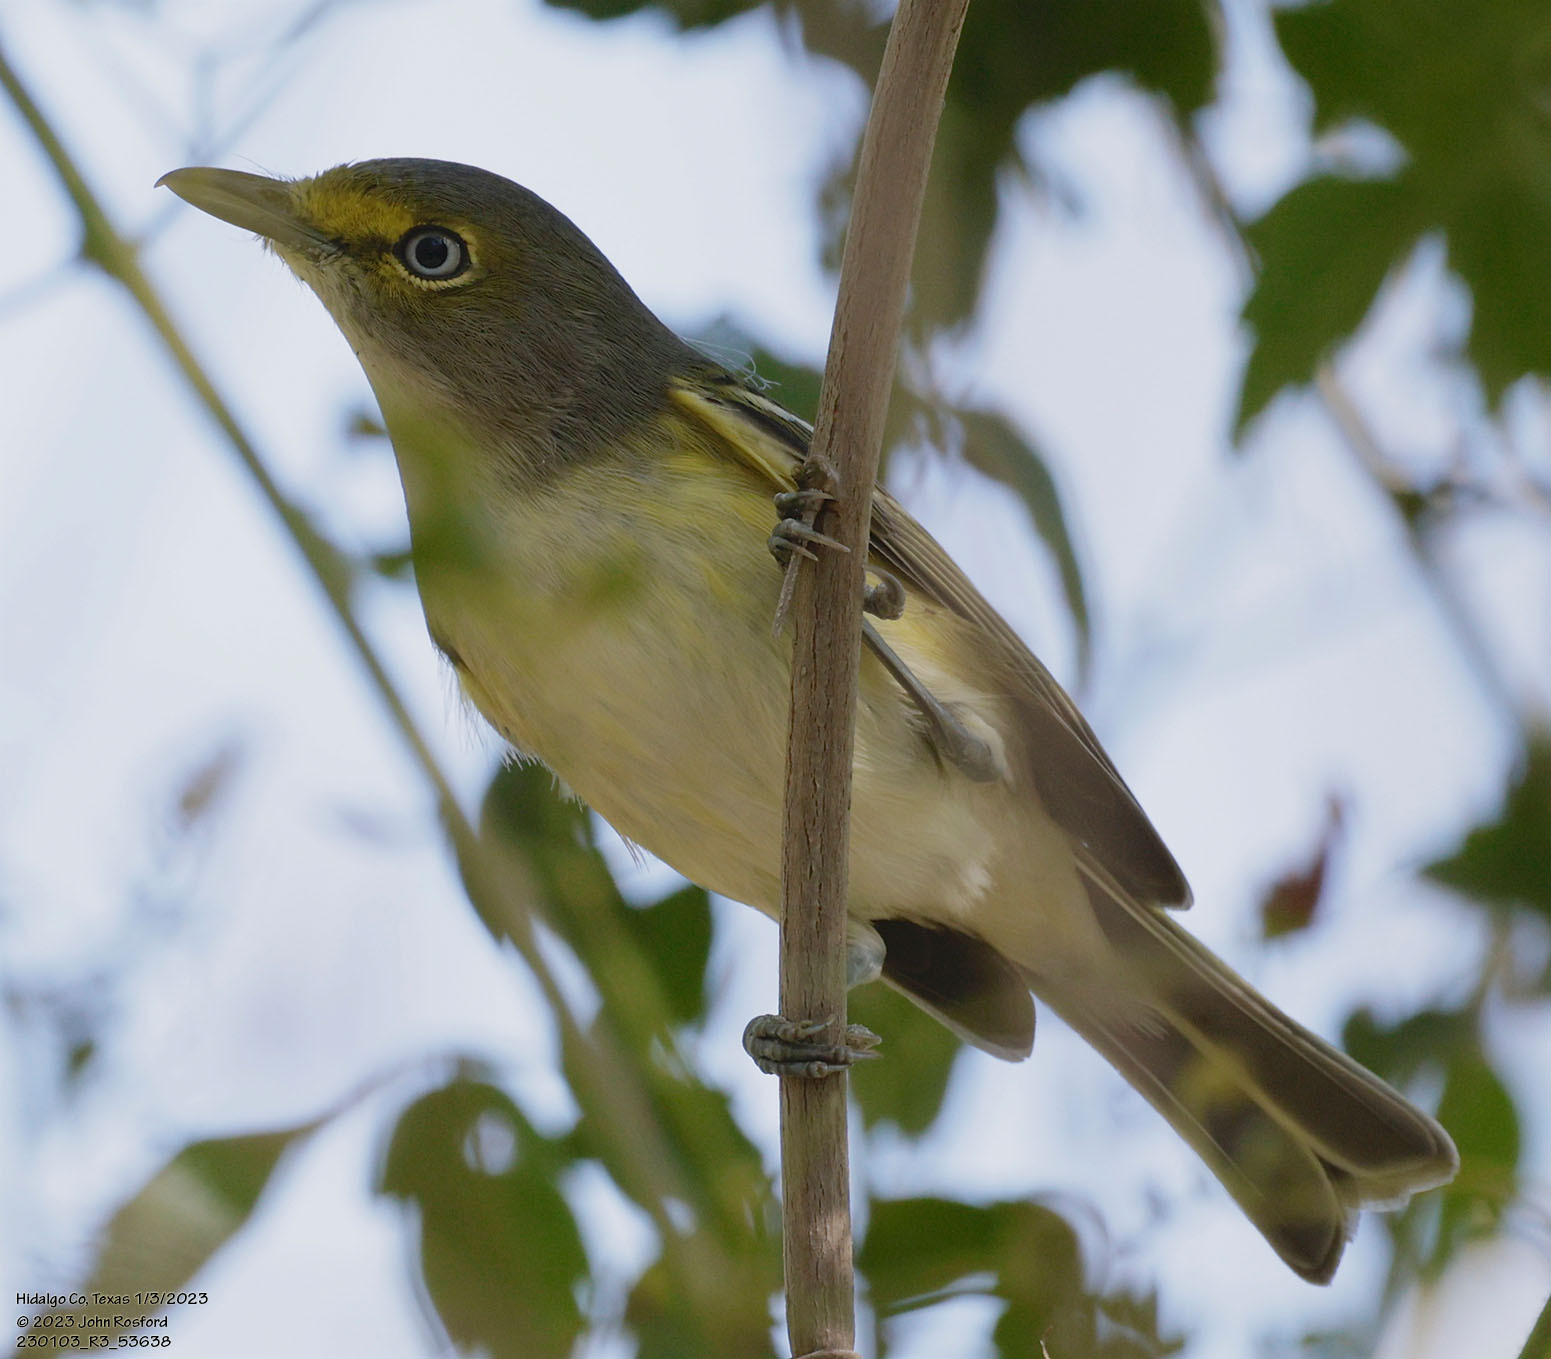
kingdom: Animalia
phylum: Chordata
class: Aves
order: Passeriformes
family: Vireonidae
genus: Vireo
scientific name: Vireo griseus
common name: White-eyed vireo
